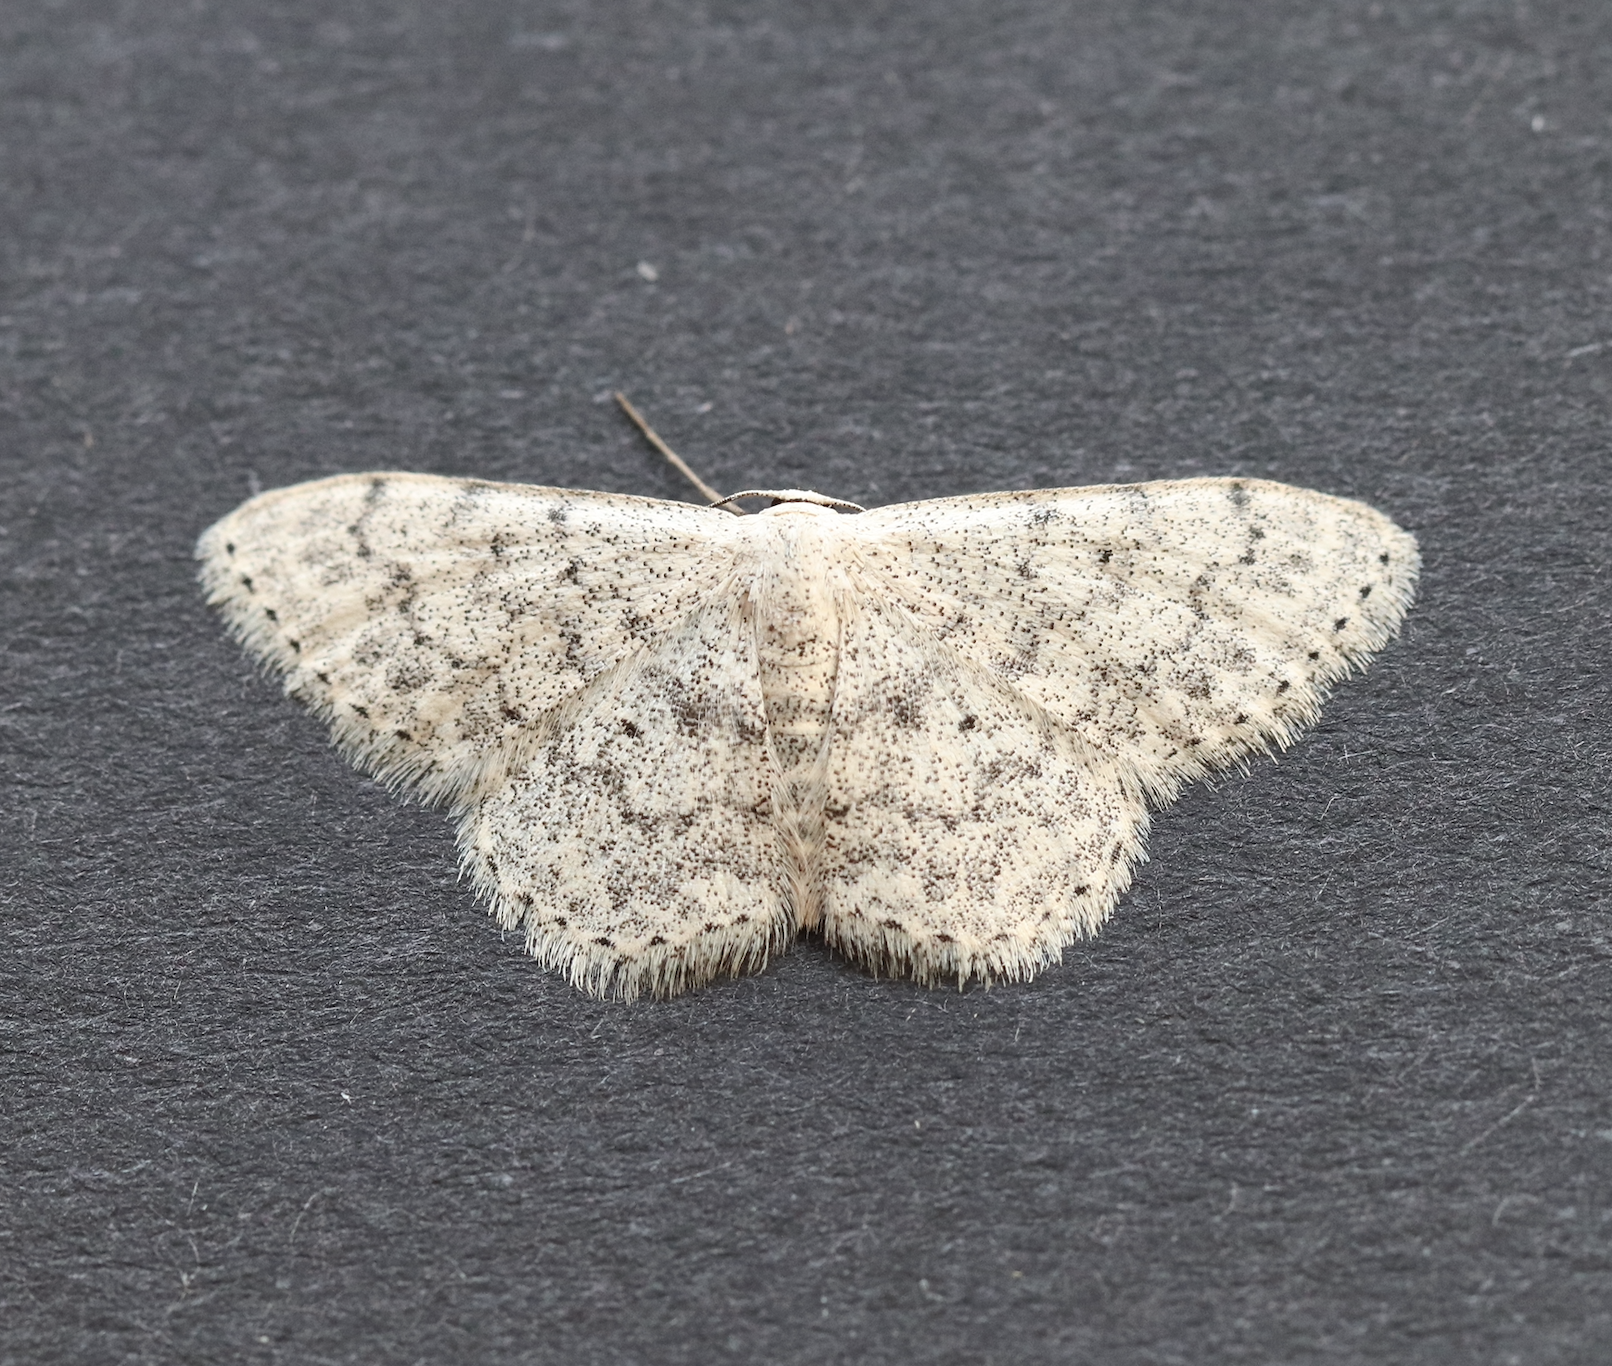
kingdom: Animalia
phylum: Arthropoda
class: Insecta
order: Lepidoptera
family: Geometridae
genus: Scopula
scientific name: Scopula marginepunctata
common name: Mullein wave
